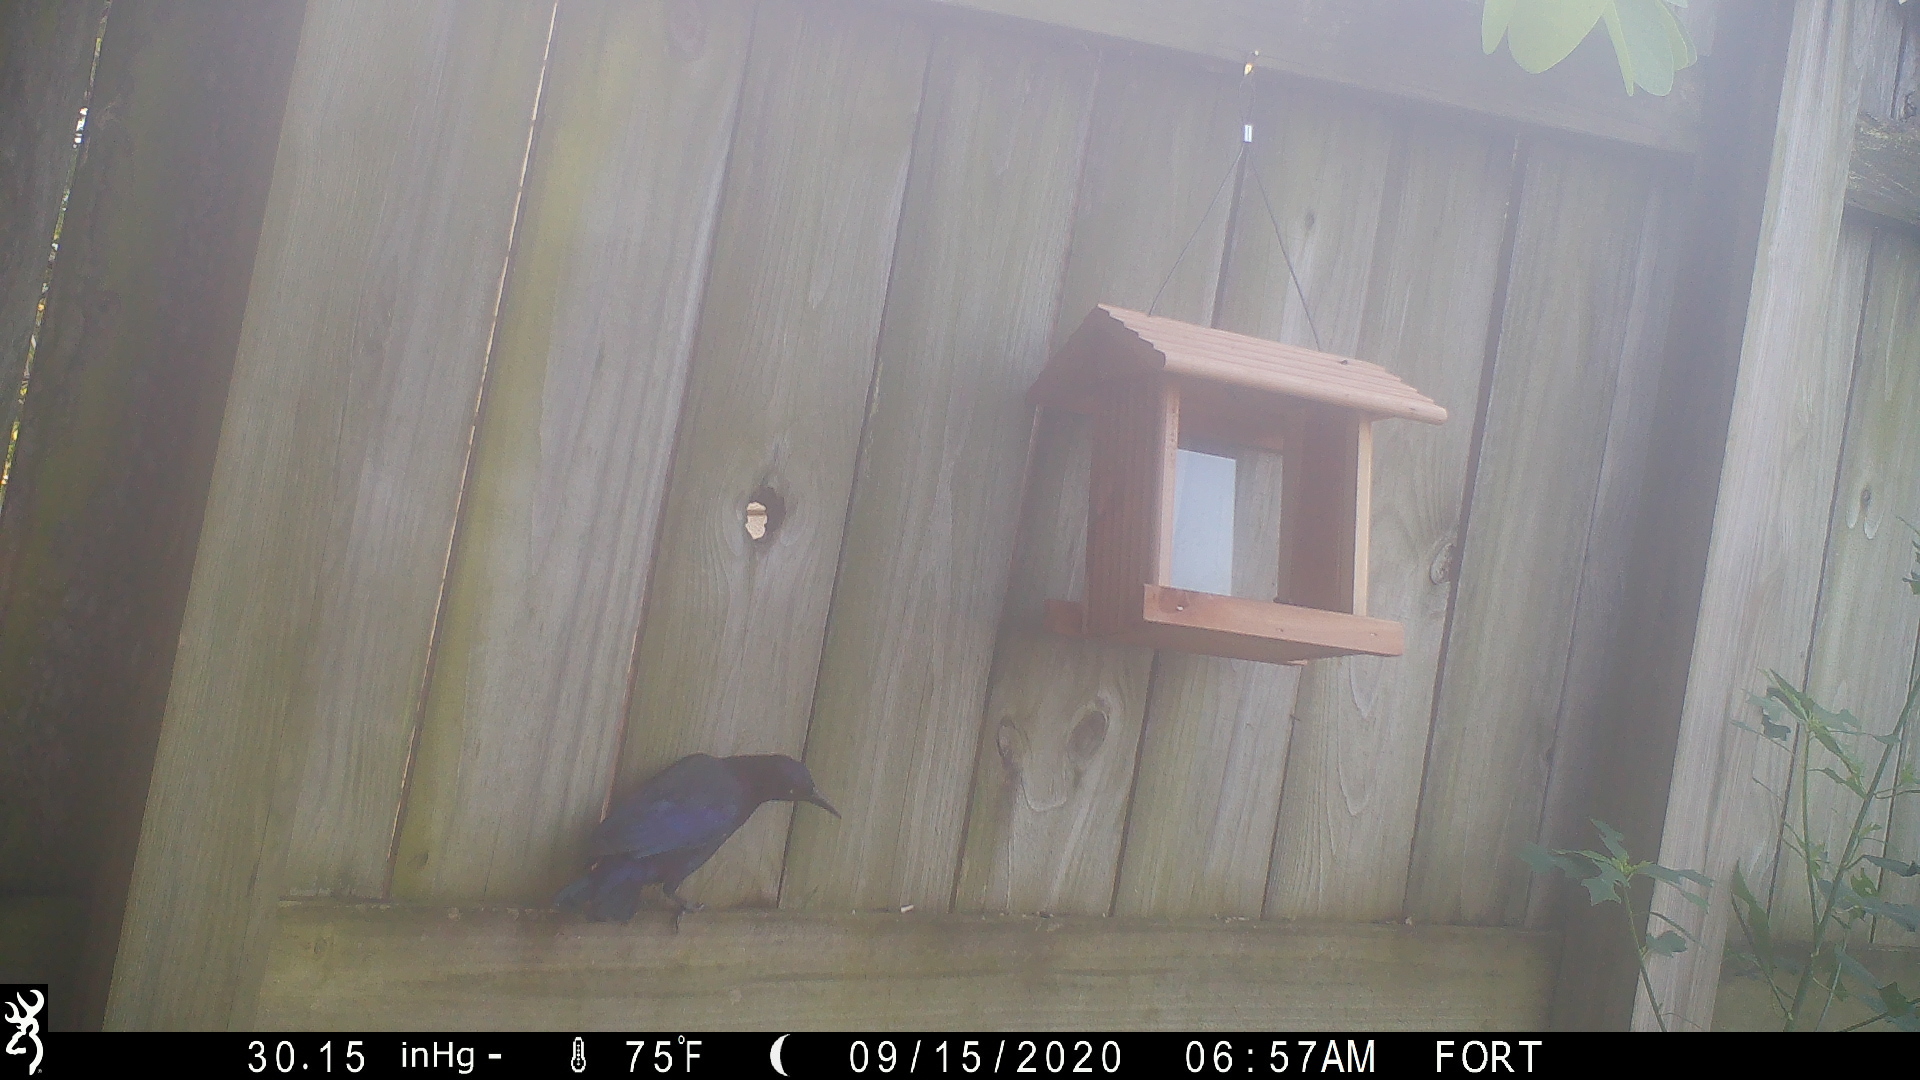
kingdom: Animalia
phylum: Chordata
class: Aves
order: Passeriformes
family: Icteridae
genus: Quiscalus
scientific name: Quiscalus quiscula
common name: Common grackle
